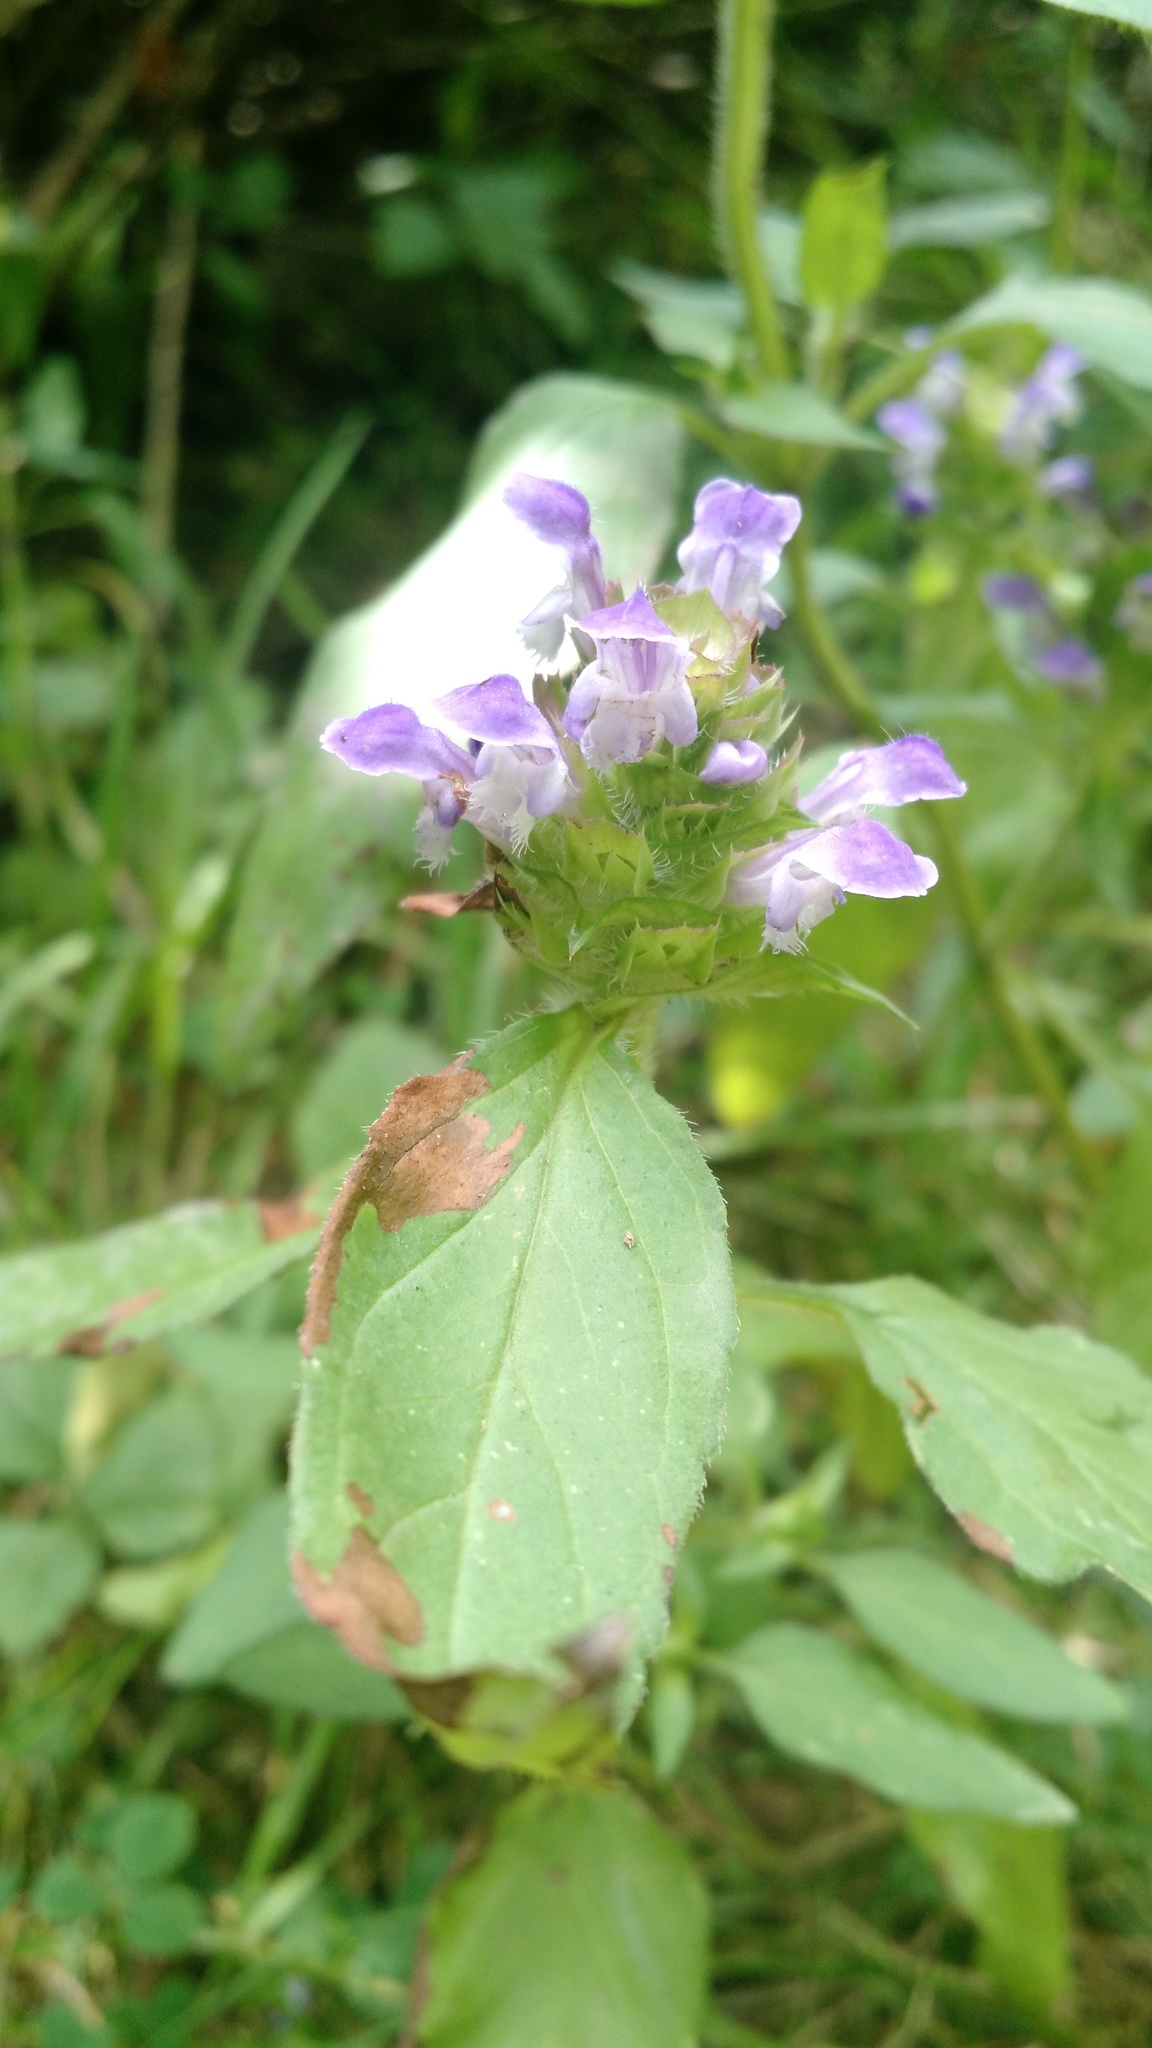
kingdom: Plantae
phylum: Tracheophyta
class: Magnoliopsida
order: Lamiales
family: Lamiaceae
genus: Prunella
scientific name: Prunella vulgaris
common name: Heal-all
